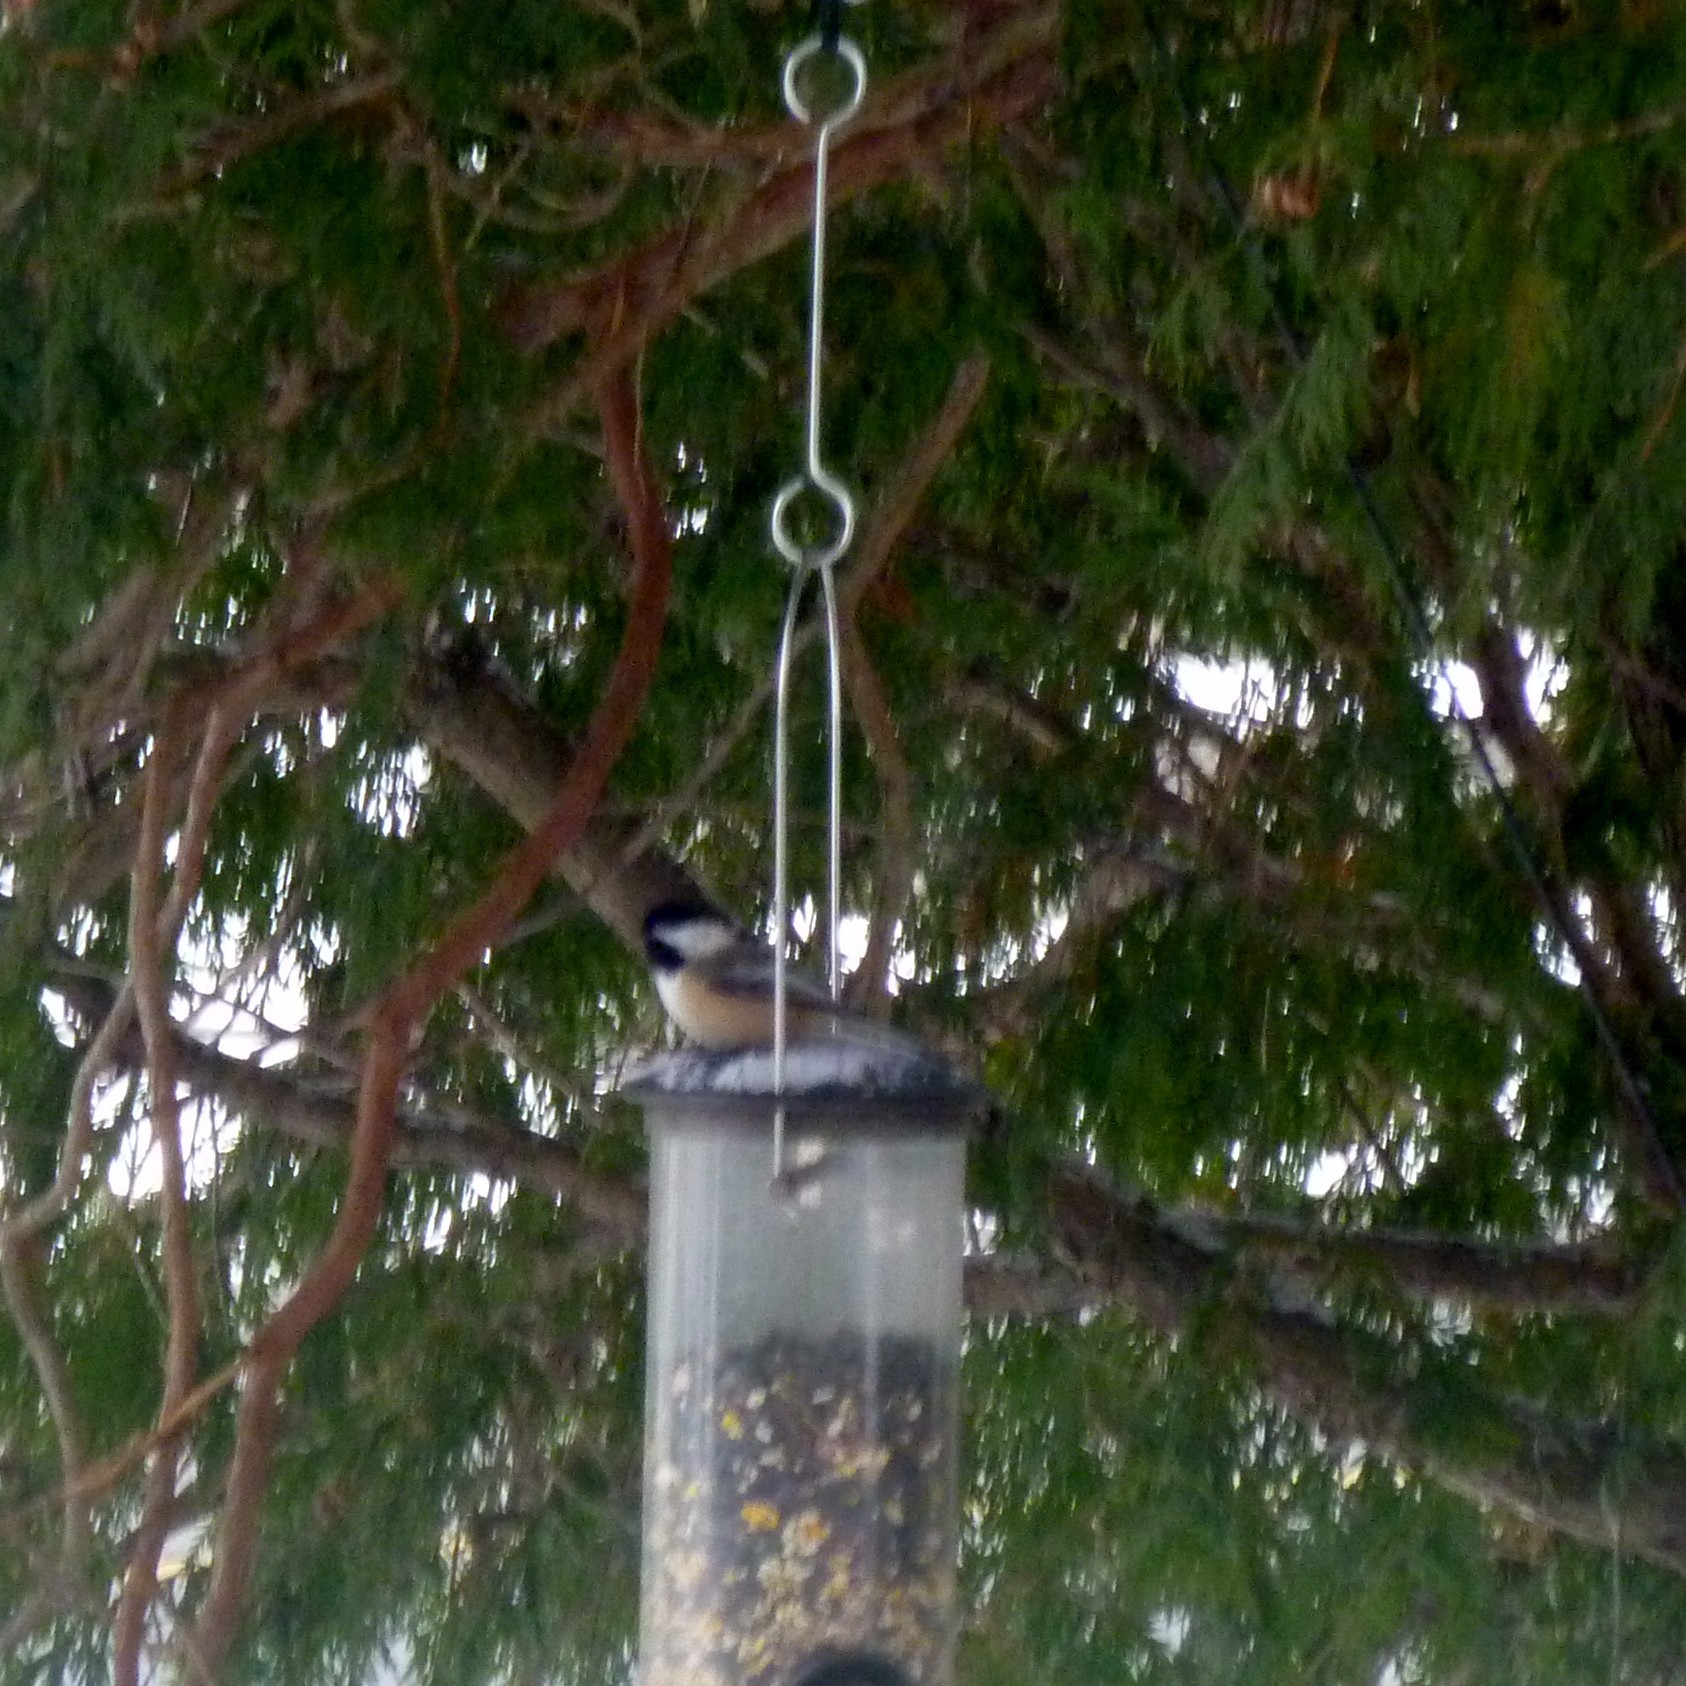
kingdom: Animalia
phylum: Chordata
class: Aves
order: Passeriformes
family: Paridae
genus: Poecile
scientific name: Poecile atricapillus
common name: Black-capped chickadee
